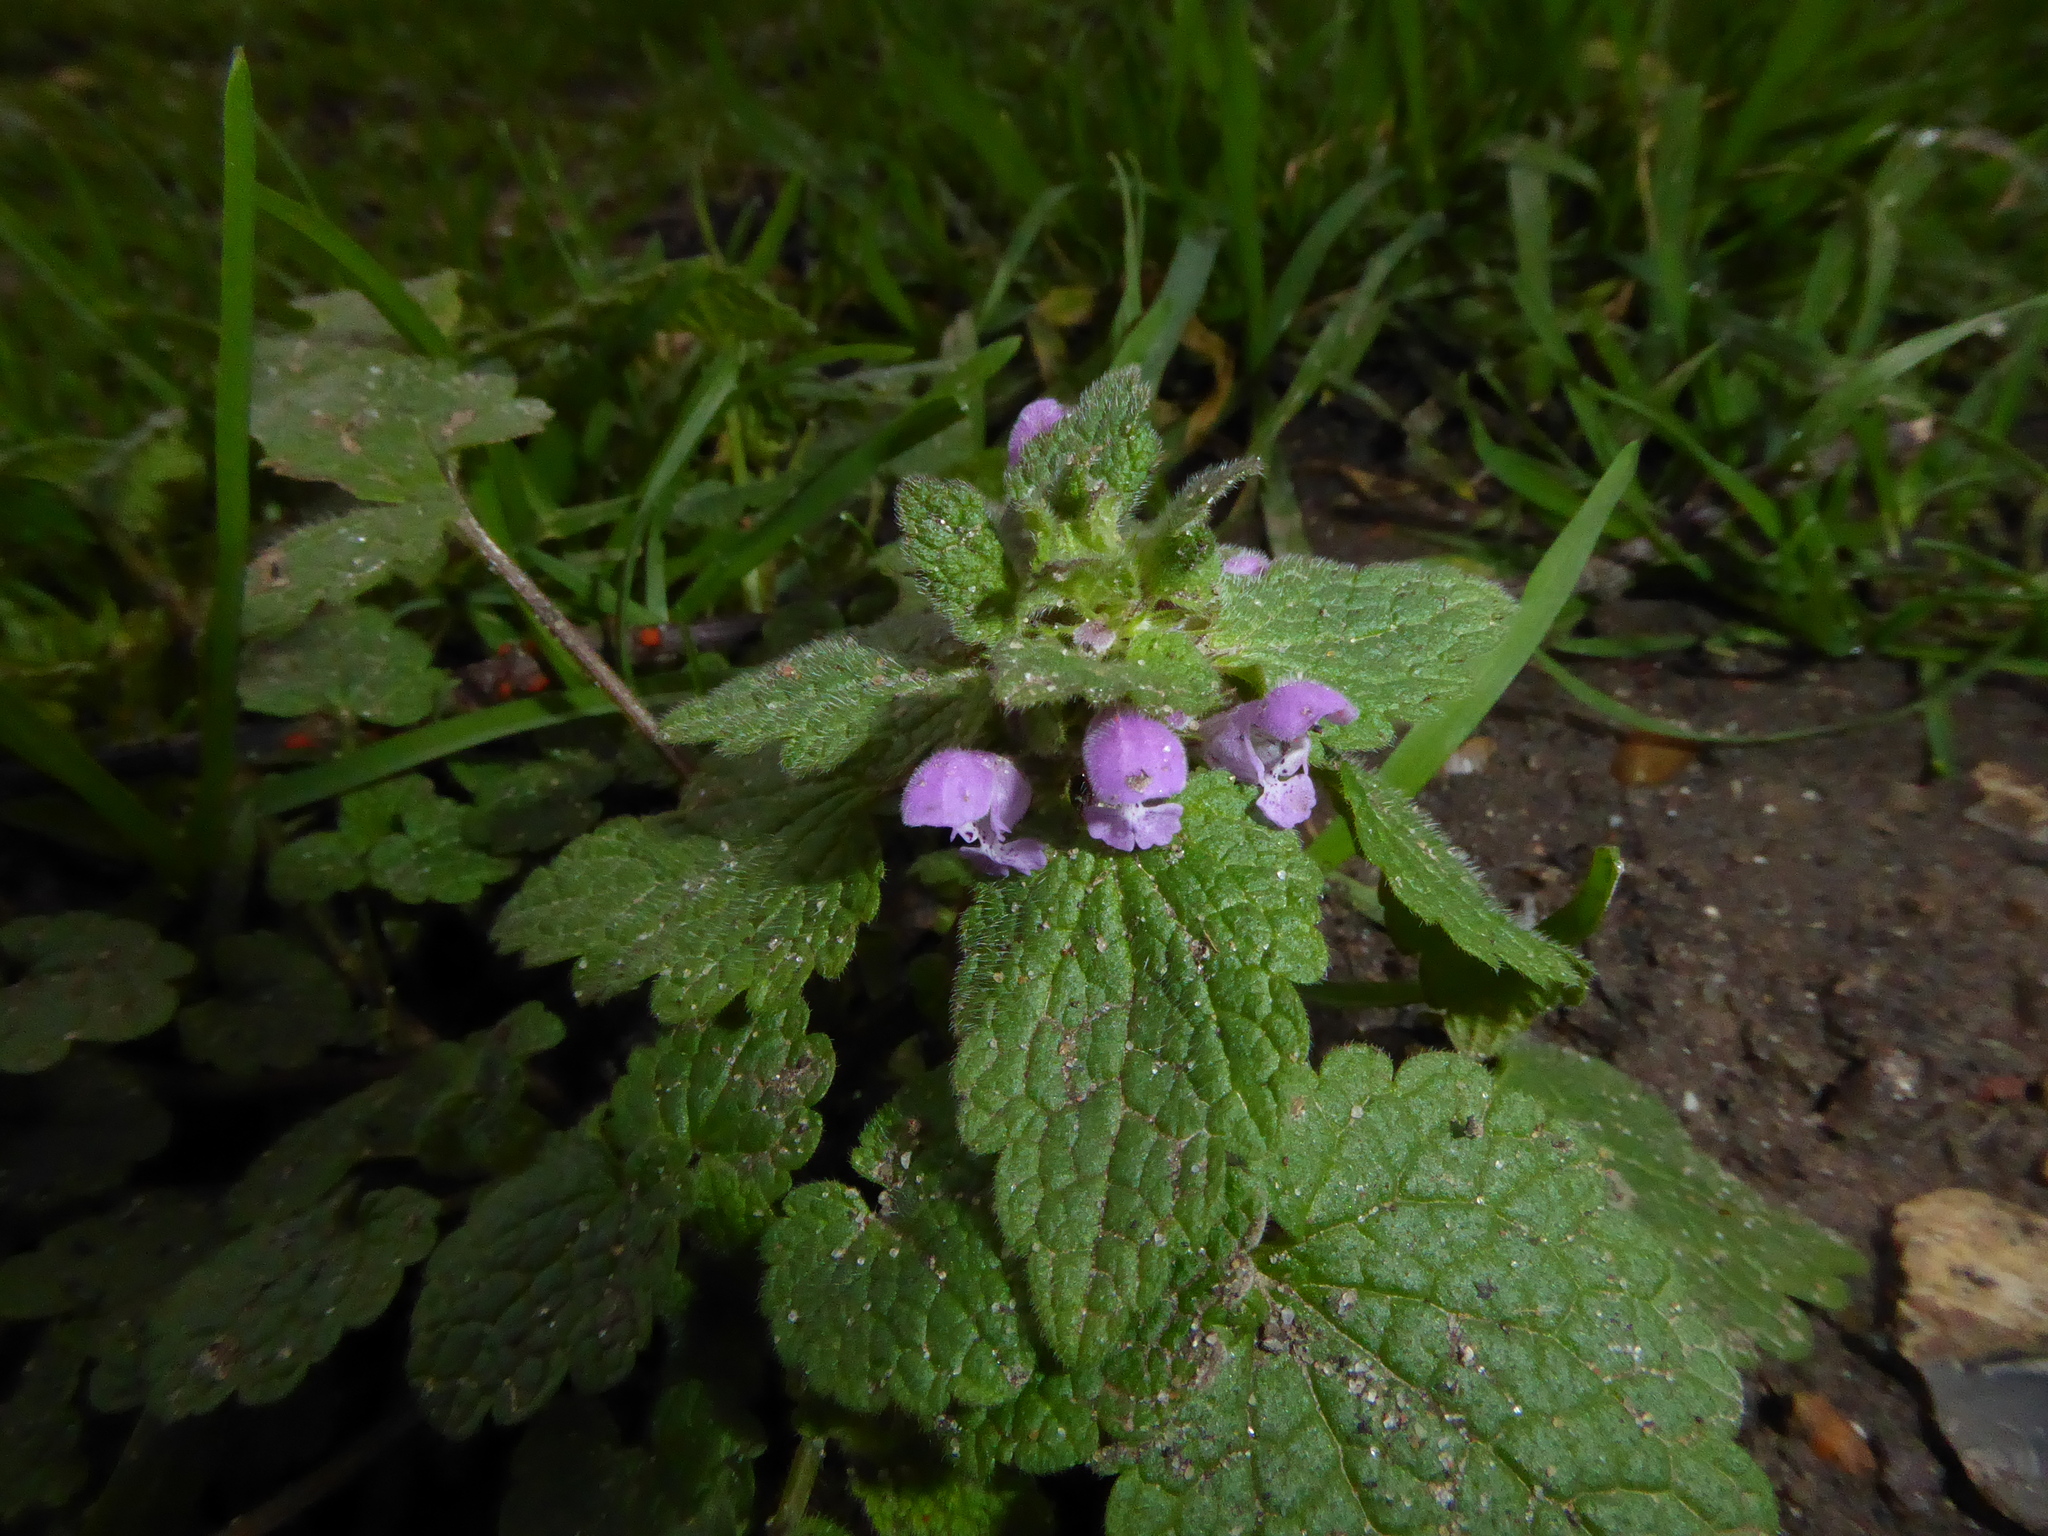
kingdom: Plantae
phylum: Tracheophyta
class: Magnoliopsida
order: Lamiales
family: Lamiaceae
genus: Lamium
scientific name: Lamium purpureum
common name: Red dead-nettle
